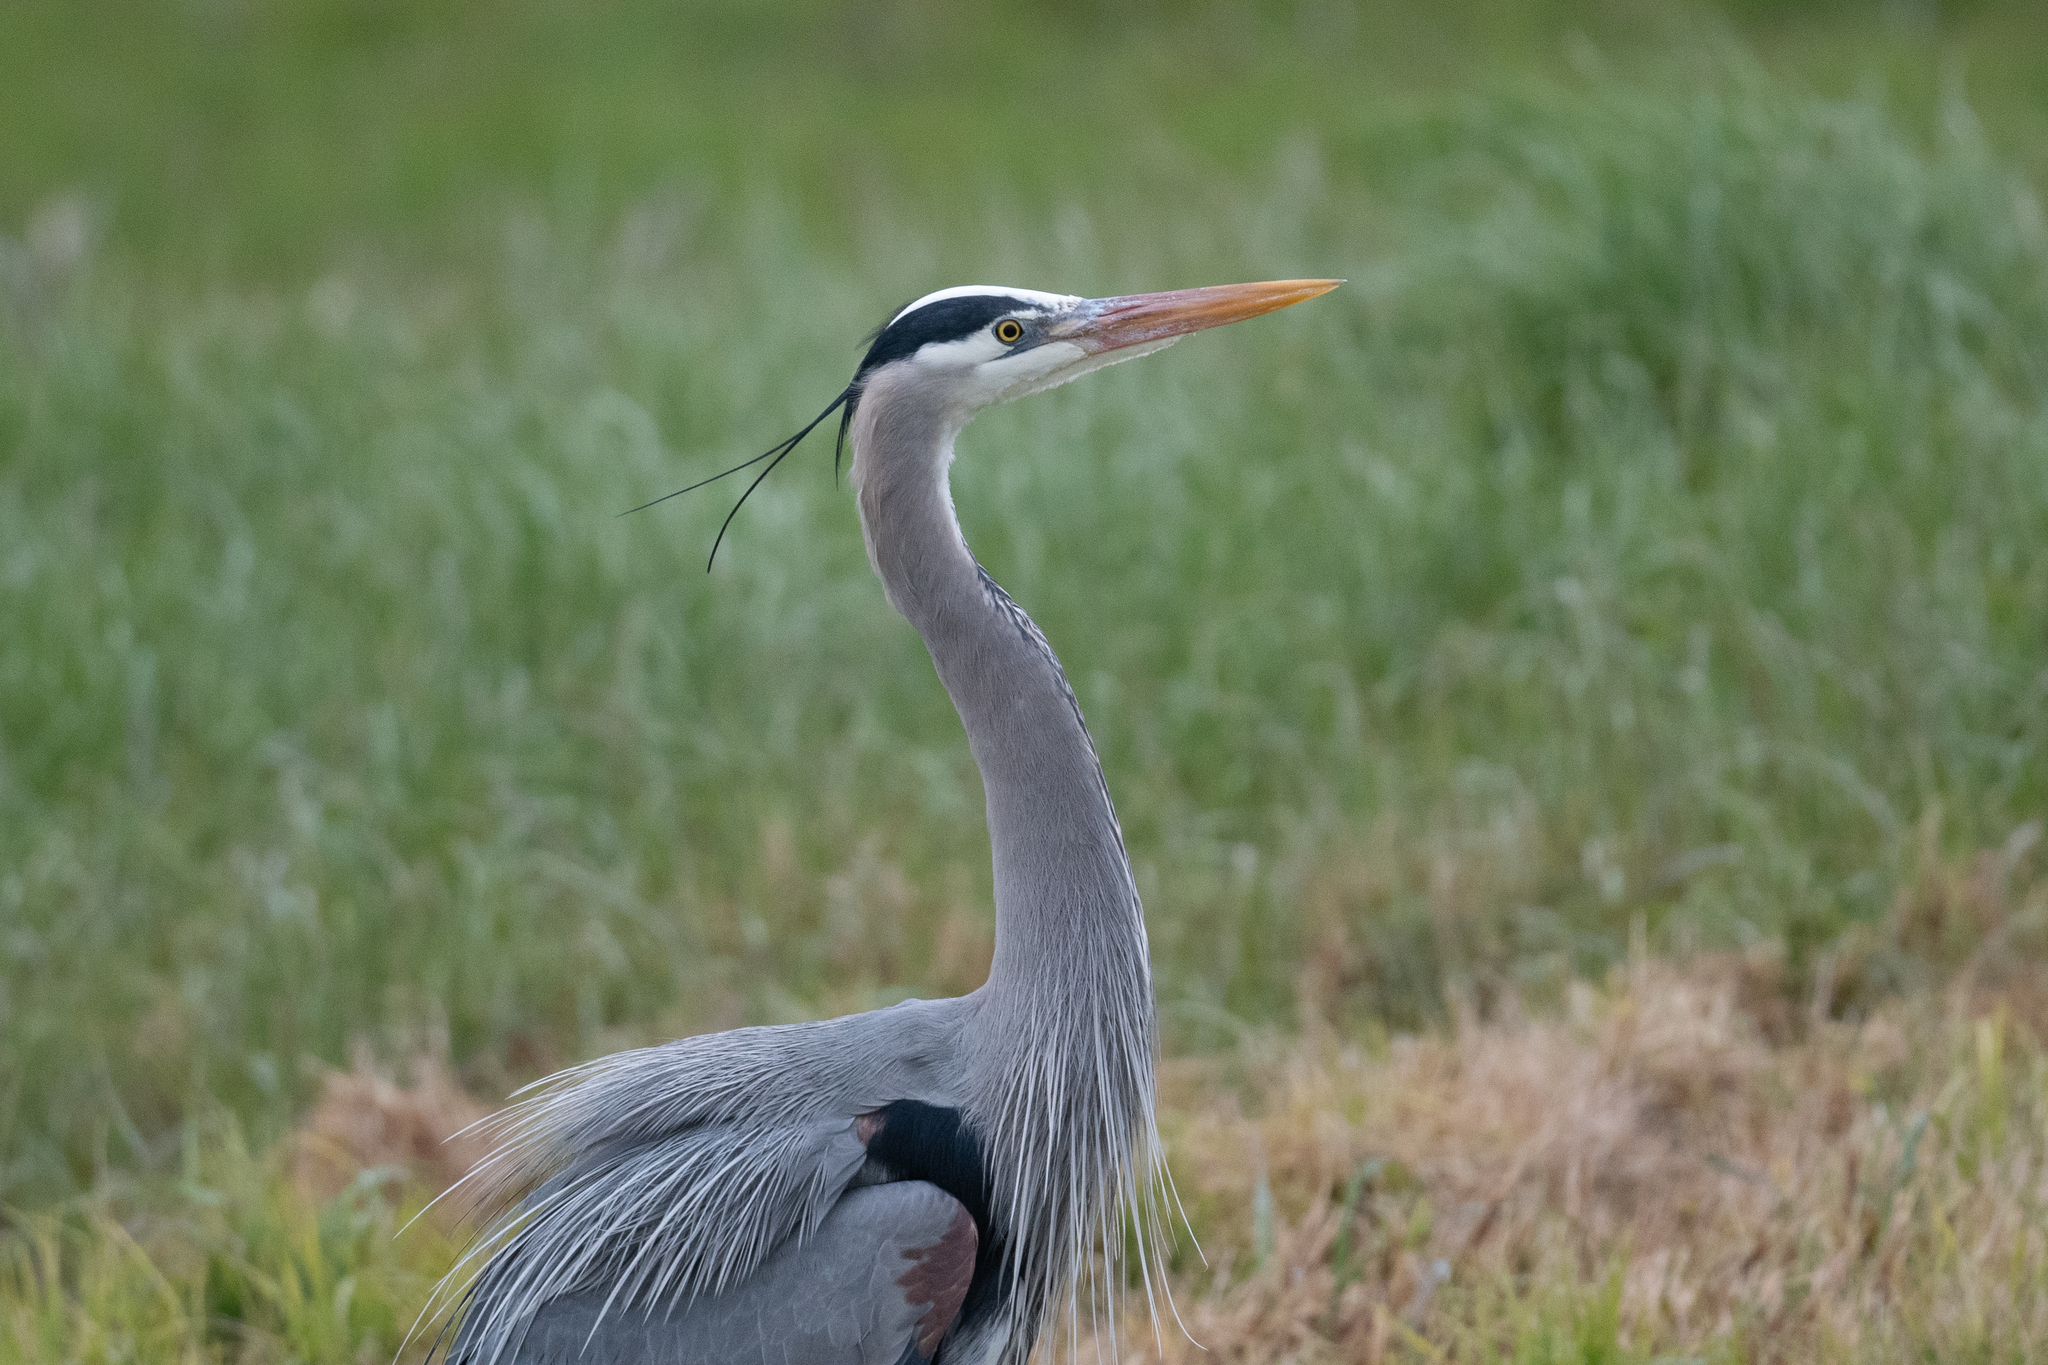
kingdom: Animalia
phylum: Chordata
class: Aves
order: Pelecaniformes
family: Ardeidae
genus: Ardea
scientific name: Ardea herodias
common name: Great blue heron
